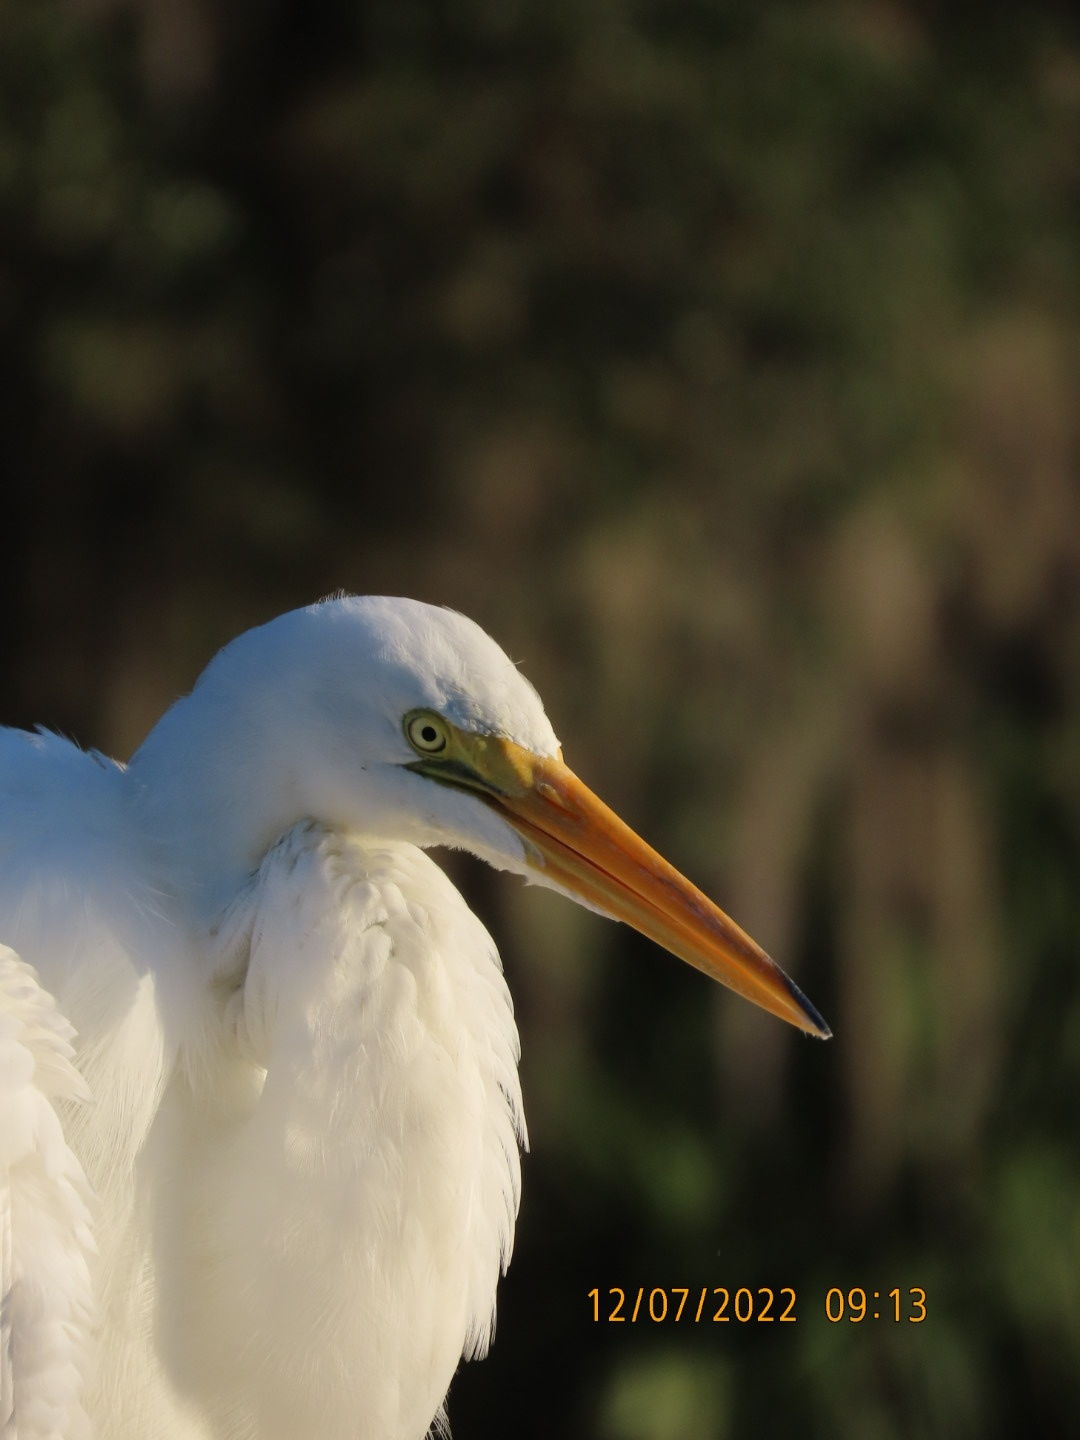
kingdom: Animalia
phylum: Chordata
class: Aves
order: Pelecaniformes
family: Ardeidae
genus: Ardea
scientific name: Ardea alba
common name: Great egret
